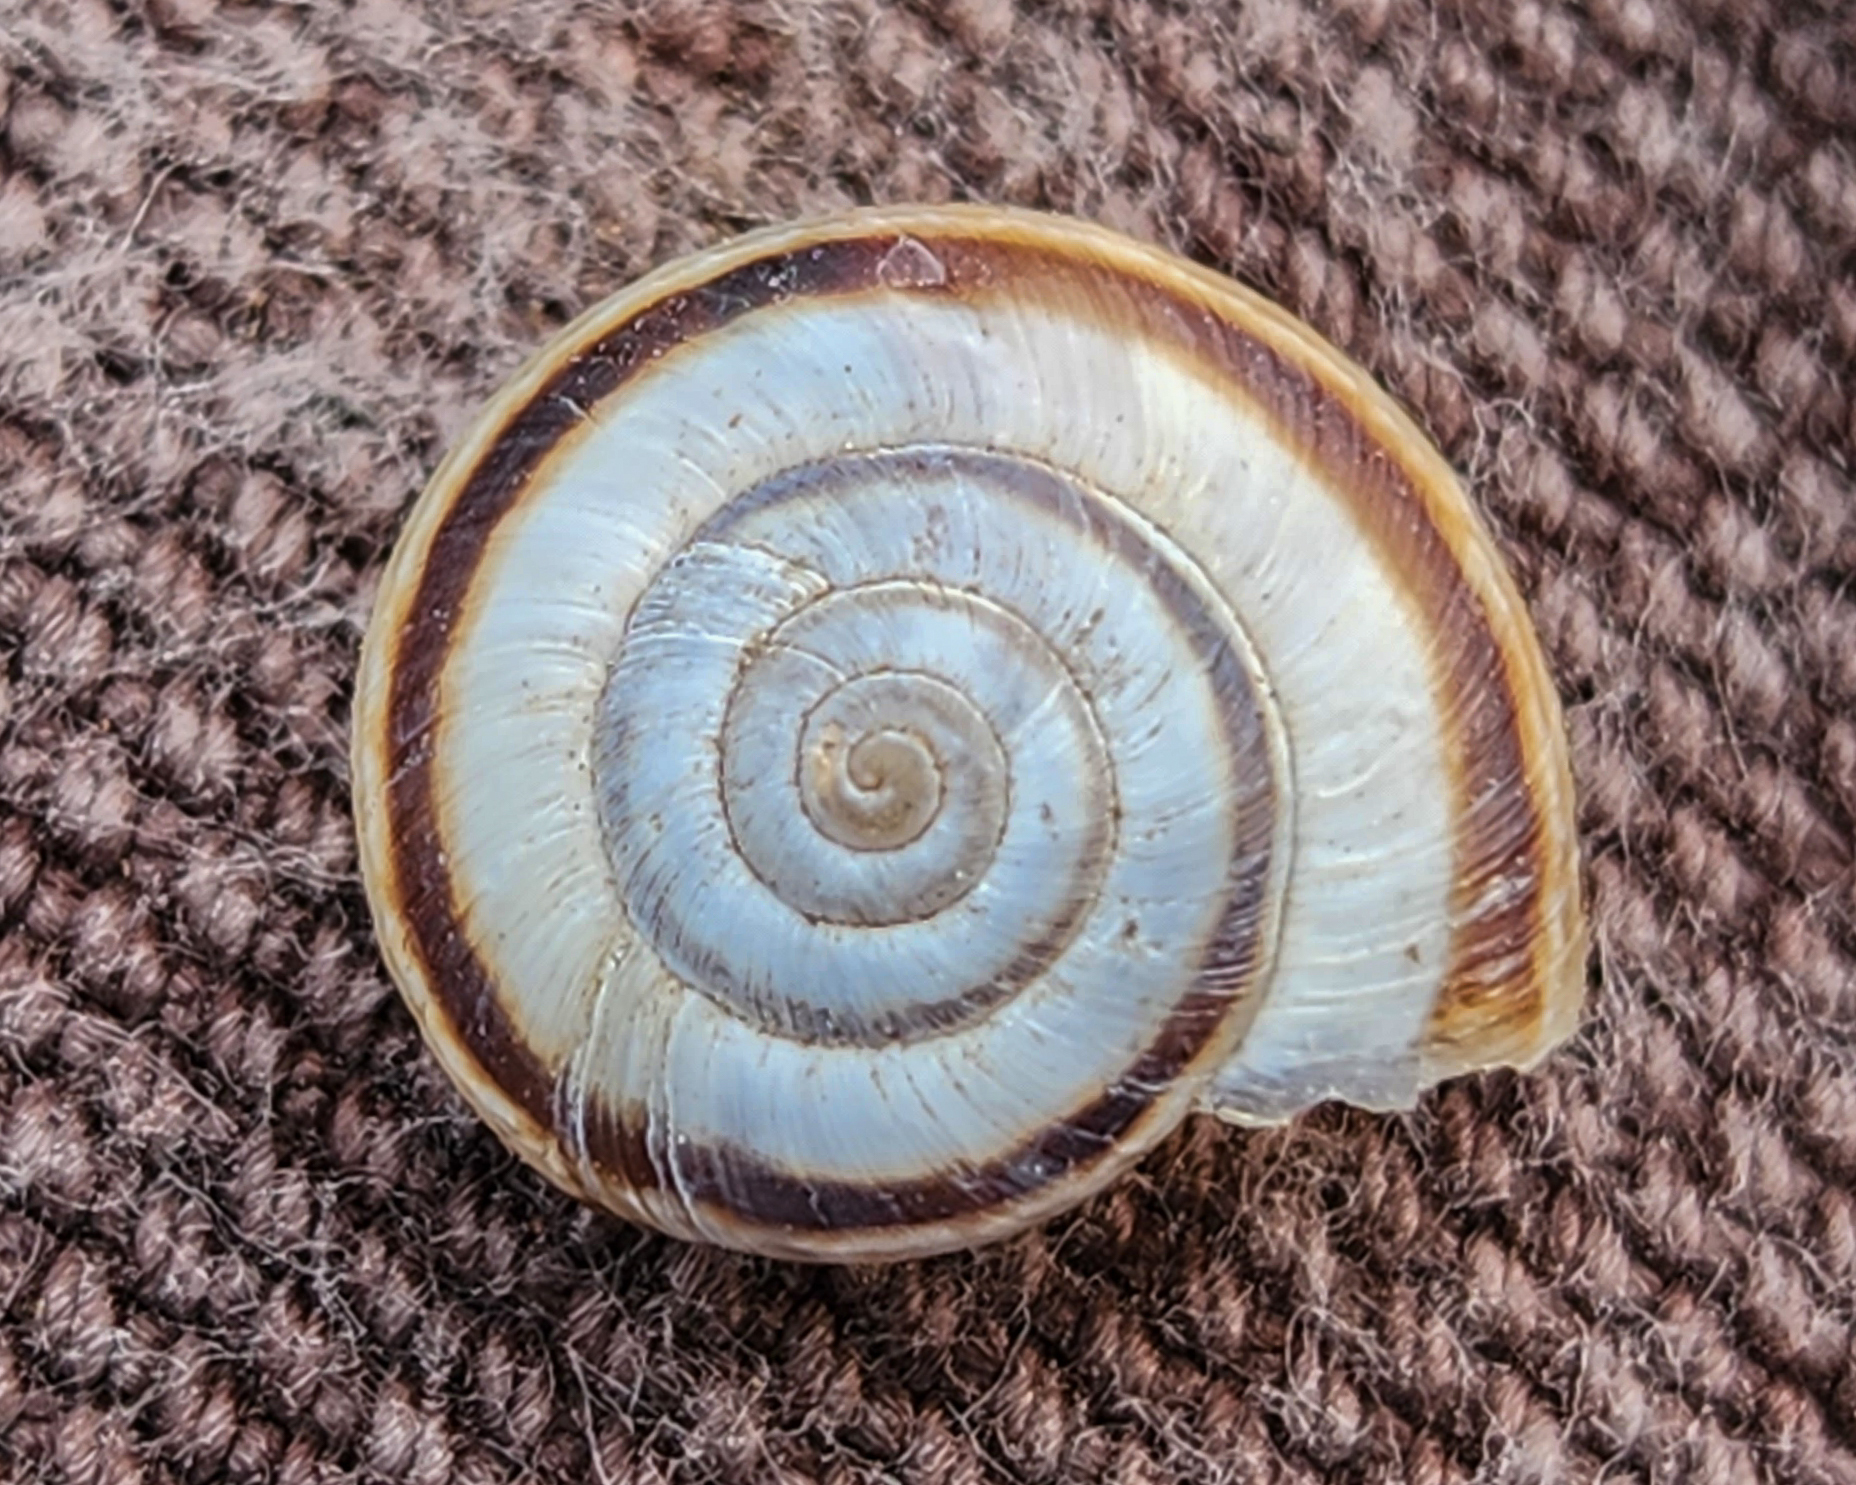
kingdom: Animalia
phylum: Mollusca
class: Gastropoda
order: Stylommatophora
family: Geomitridae
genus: Xerolenta
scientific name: Xerolenta obvia
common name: White heath snail
